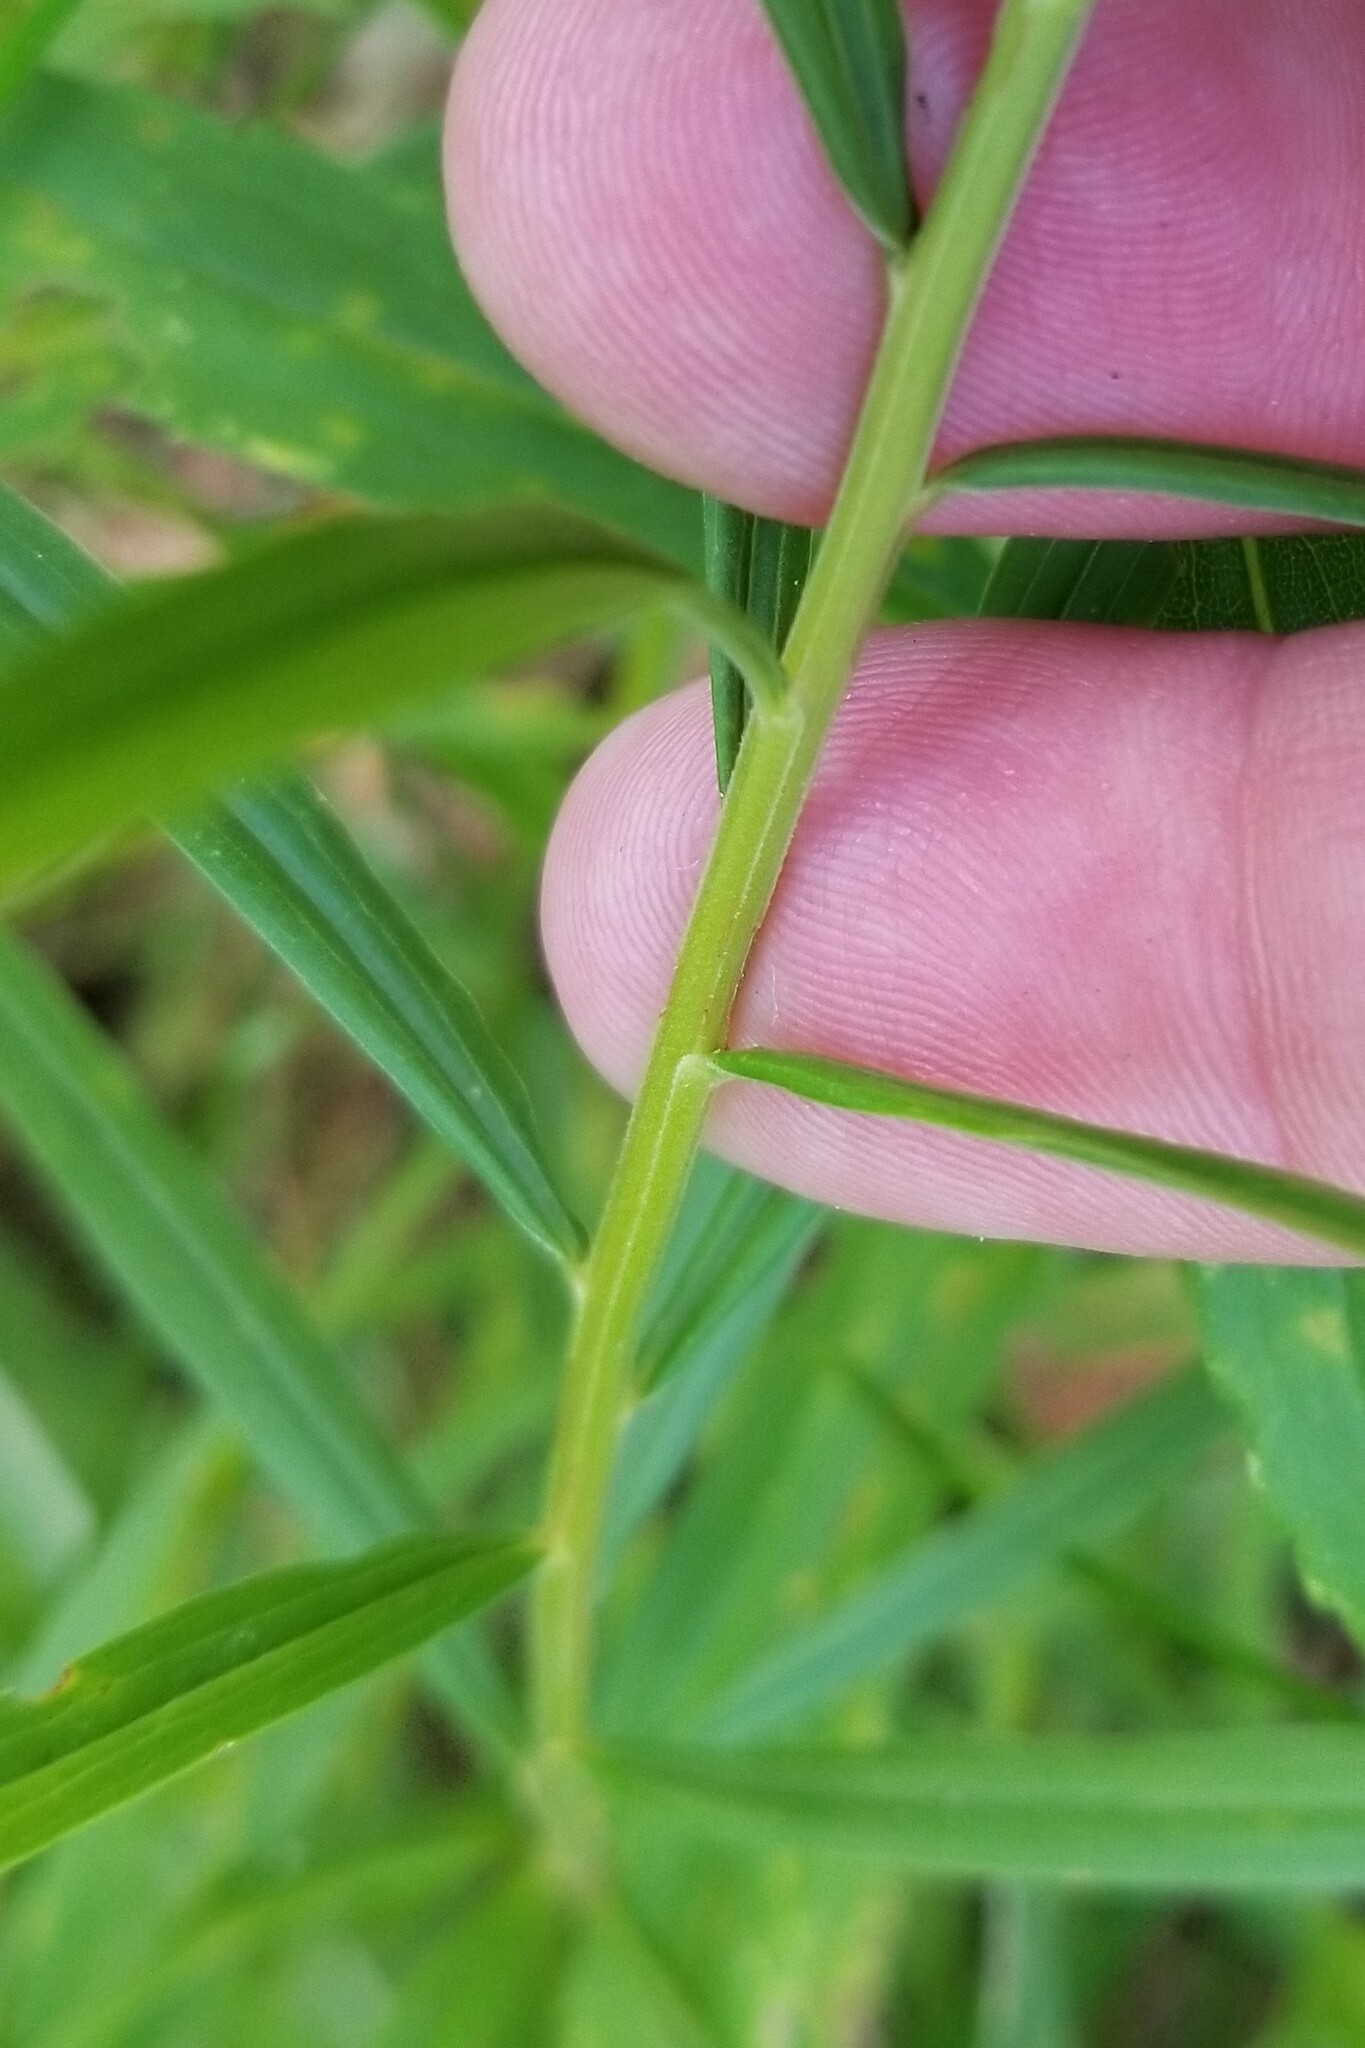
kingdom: Plantae
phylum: Tracheophyta
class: Magnoliopsida
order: Asterales
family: Asteraceae
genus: Euthamia
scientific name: Euthamia graminifolia
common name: Common goldentop
